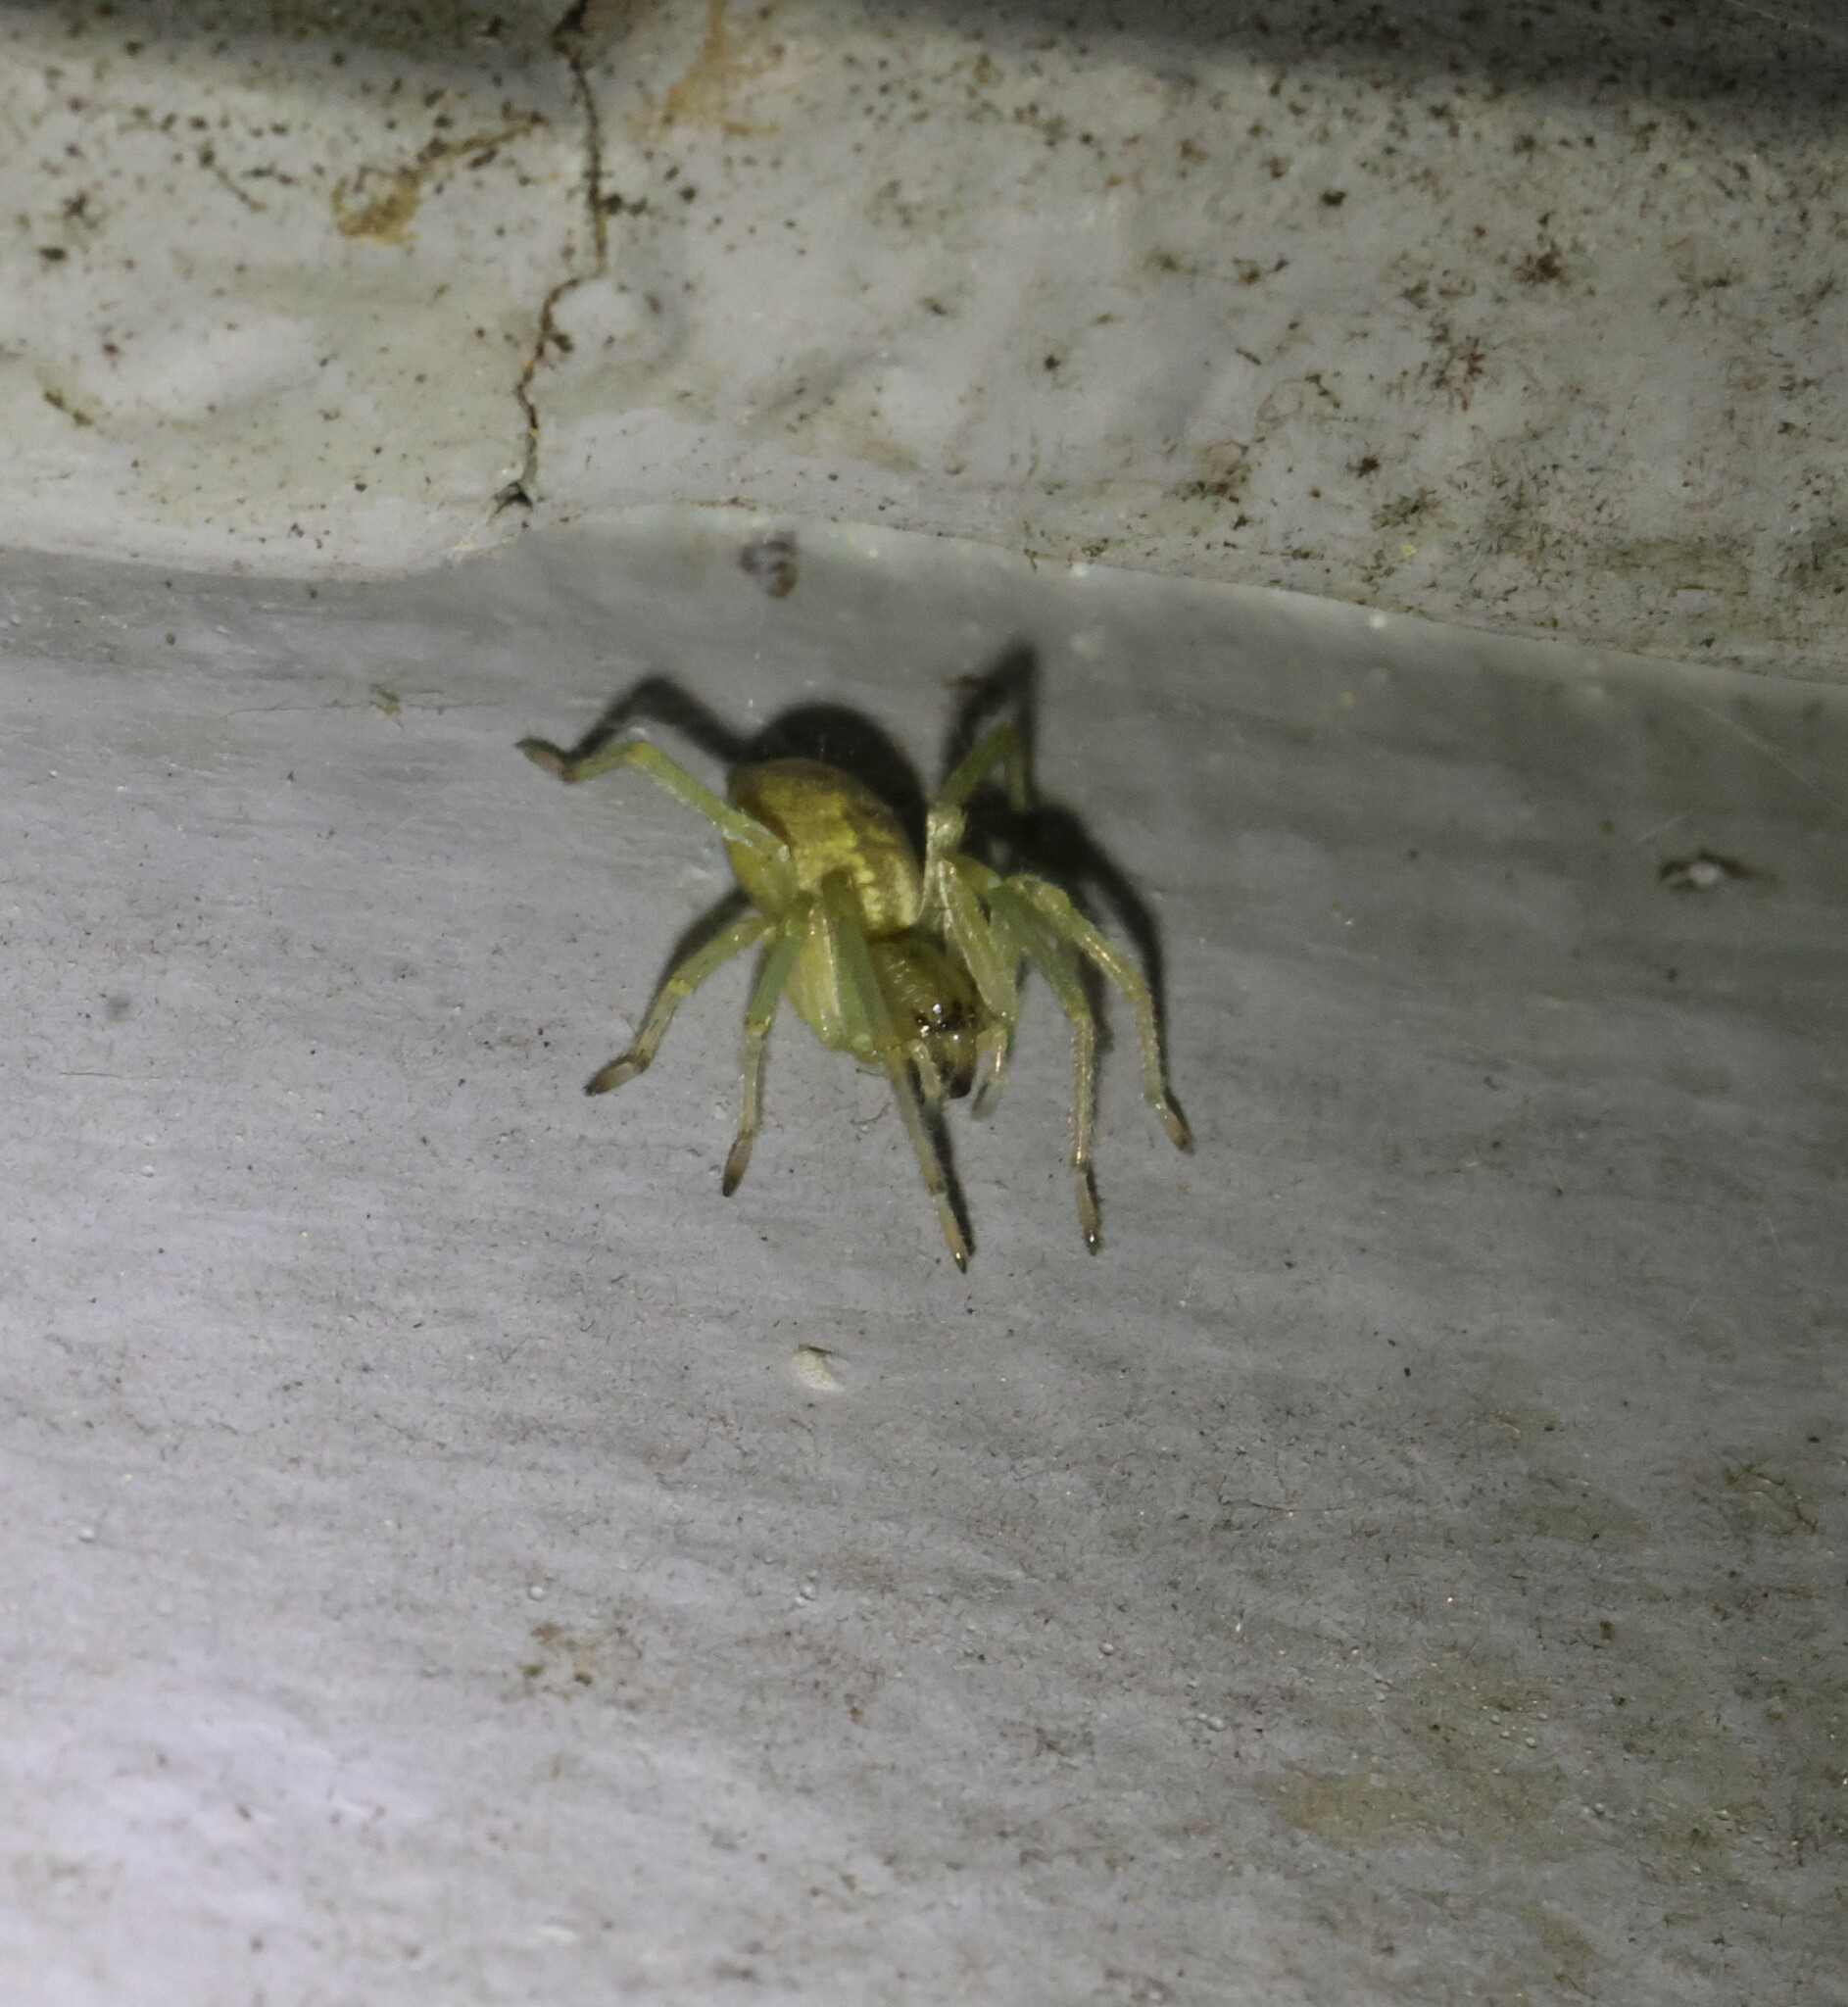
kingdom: Animalia
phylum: Arthropoda
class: Arachnida
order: Araneae
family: Cheiracanthiidae
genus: Cheiracanthium
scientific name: Cheiracanthium mildei
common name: Northern yellow sac spider
